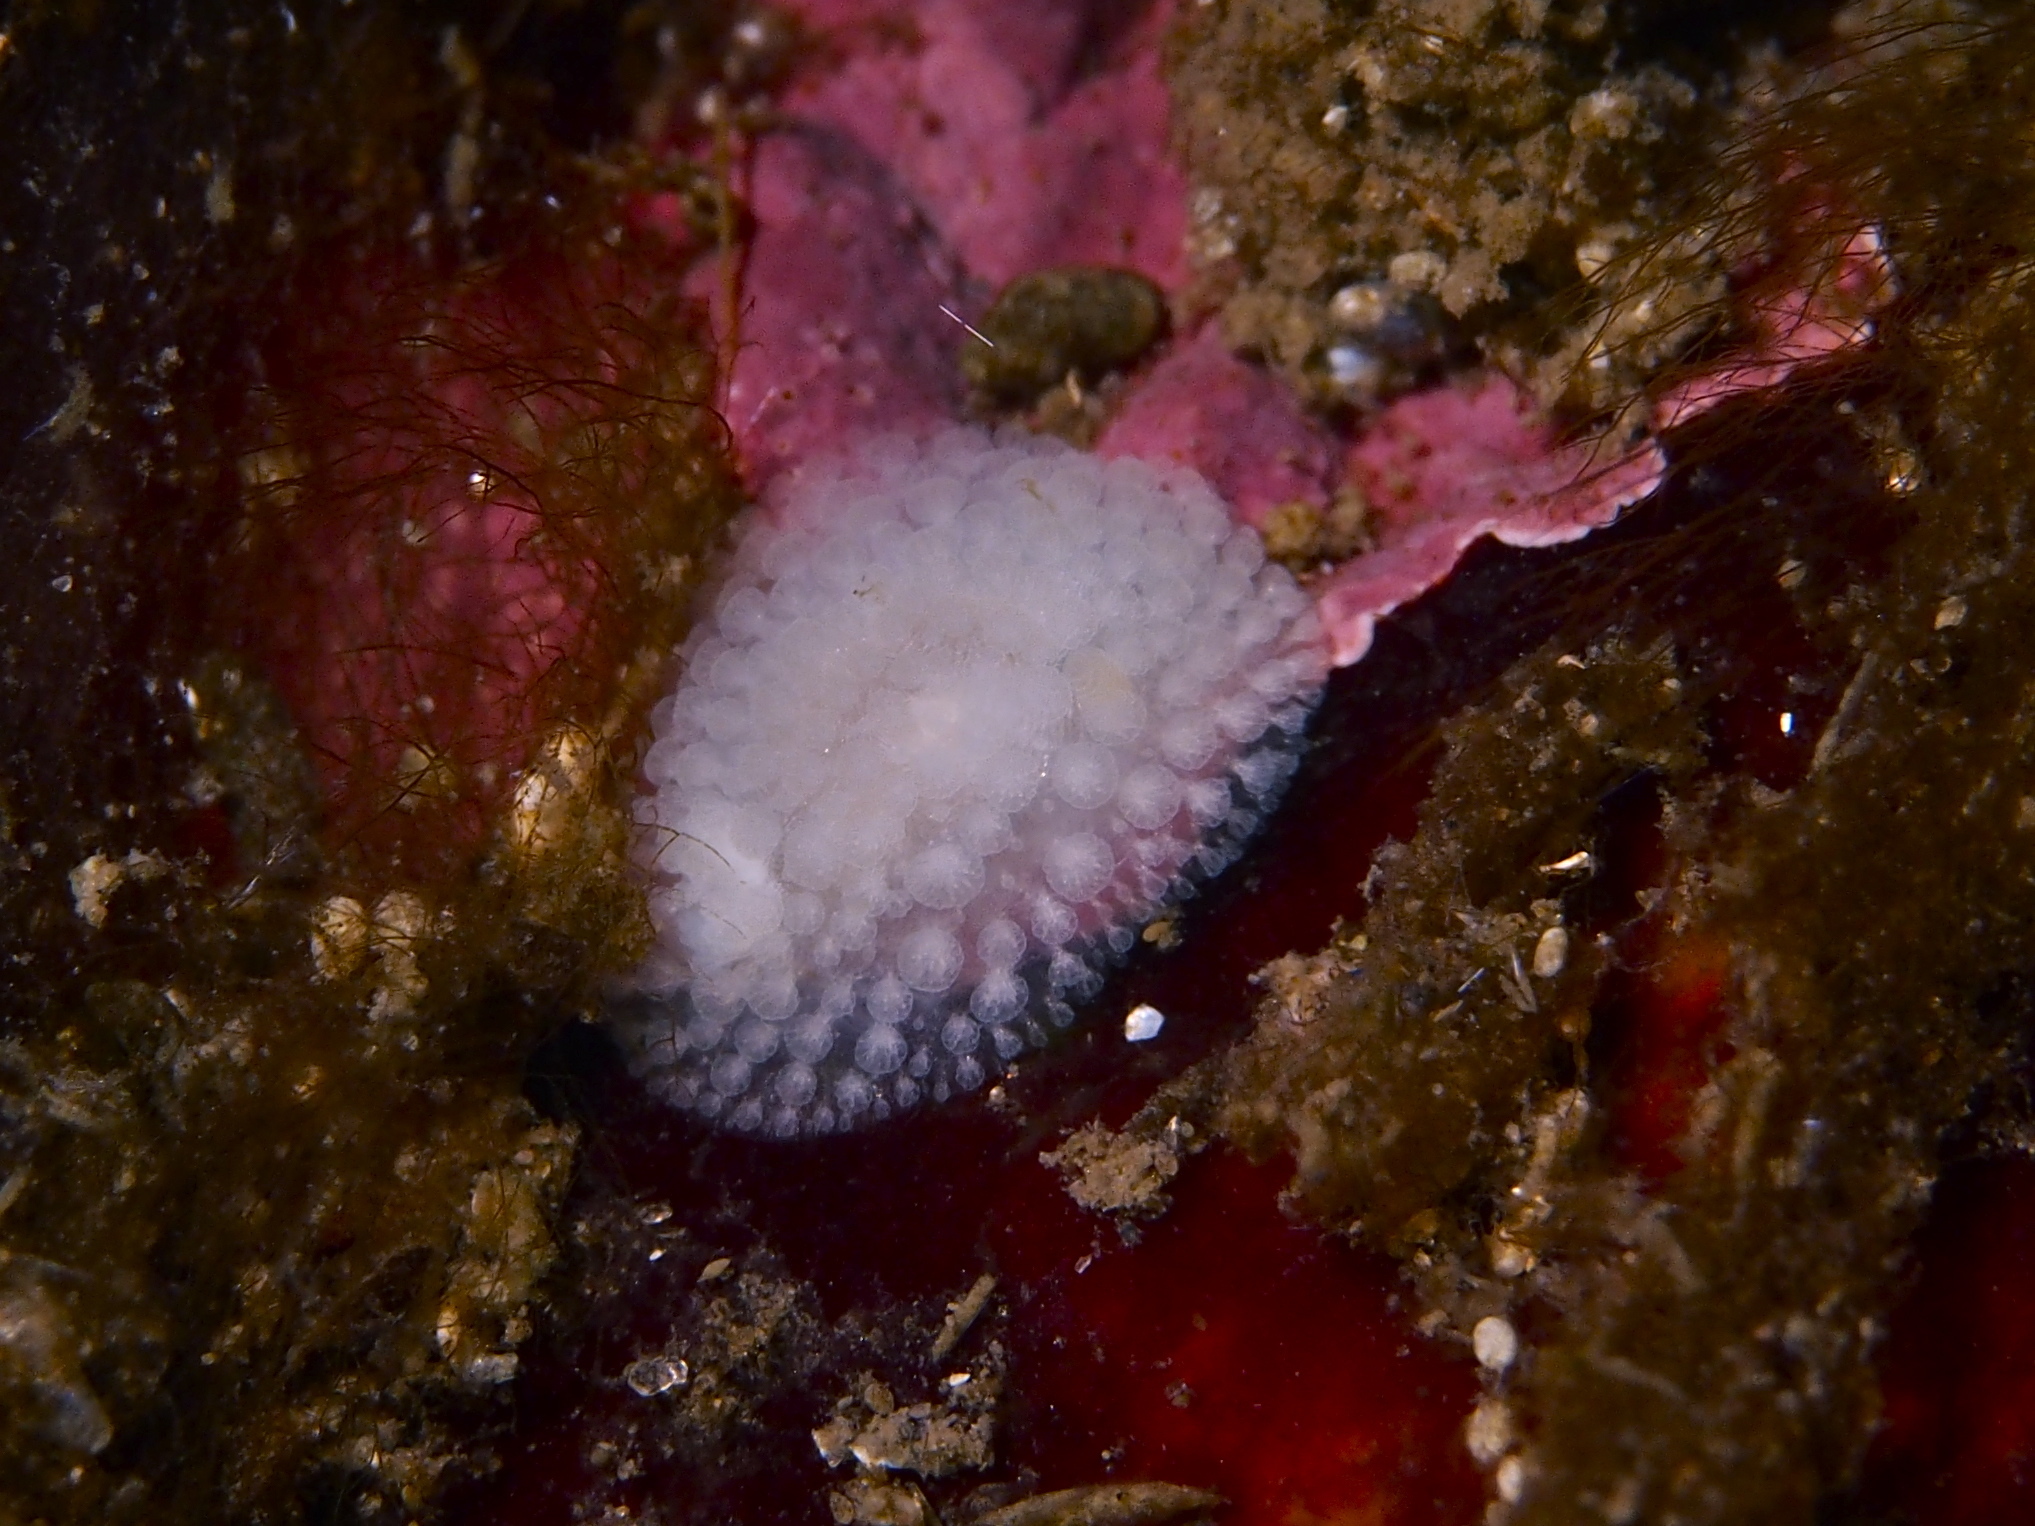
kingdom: Animalia
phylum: Mollusca
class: Gastropoda
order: Nudibranchia
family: Onchidorididae
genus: Onchidoris
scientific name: Onchidoris muricata
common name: Rough doris
